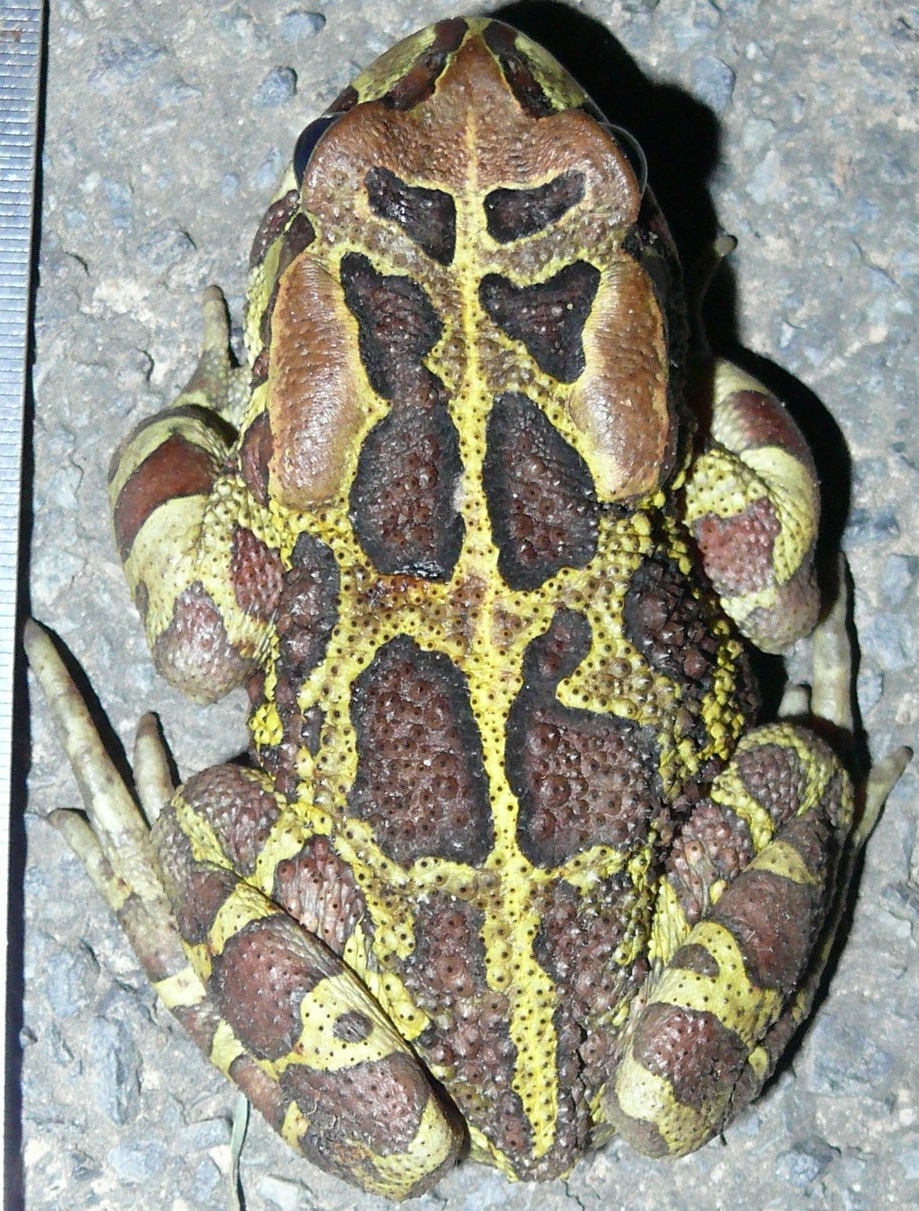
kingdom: Animalia
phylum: Chordata
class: Amphibia
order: Anura
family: Bufonidae
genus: Sclerophrys
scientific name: Sclerophrys pantherina
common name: Panther toad
